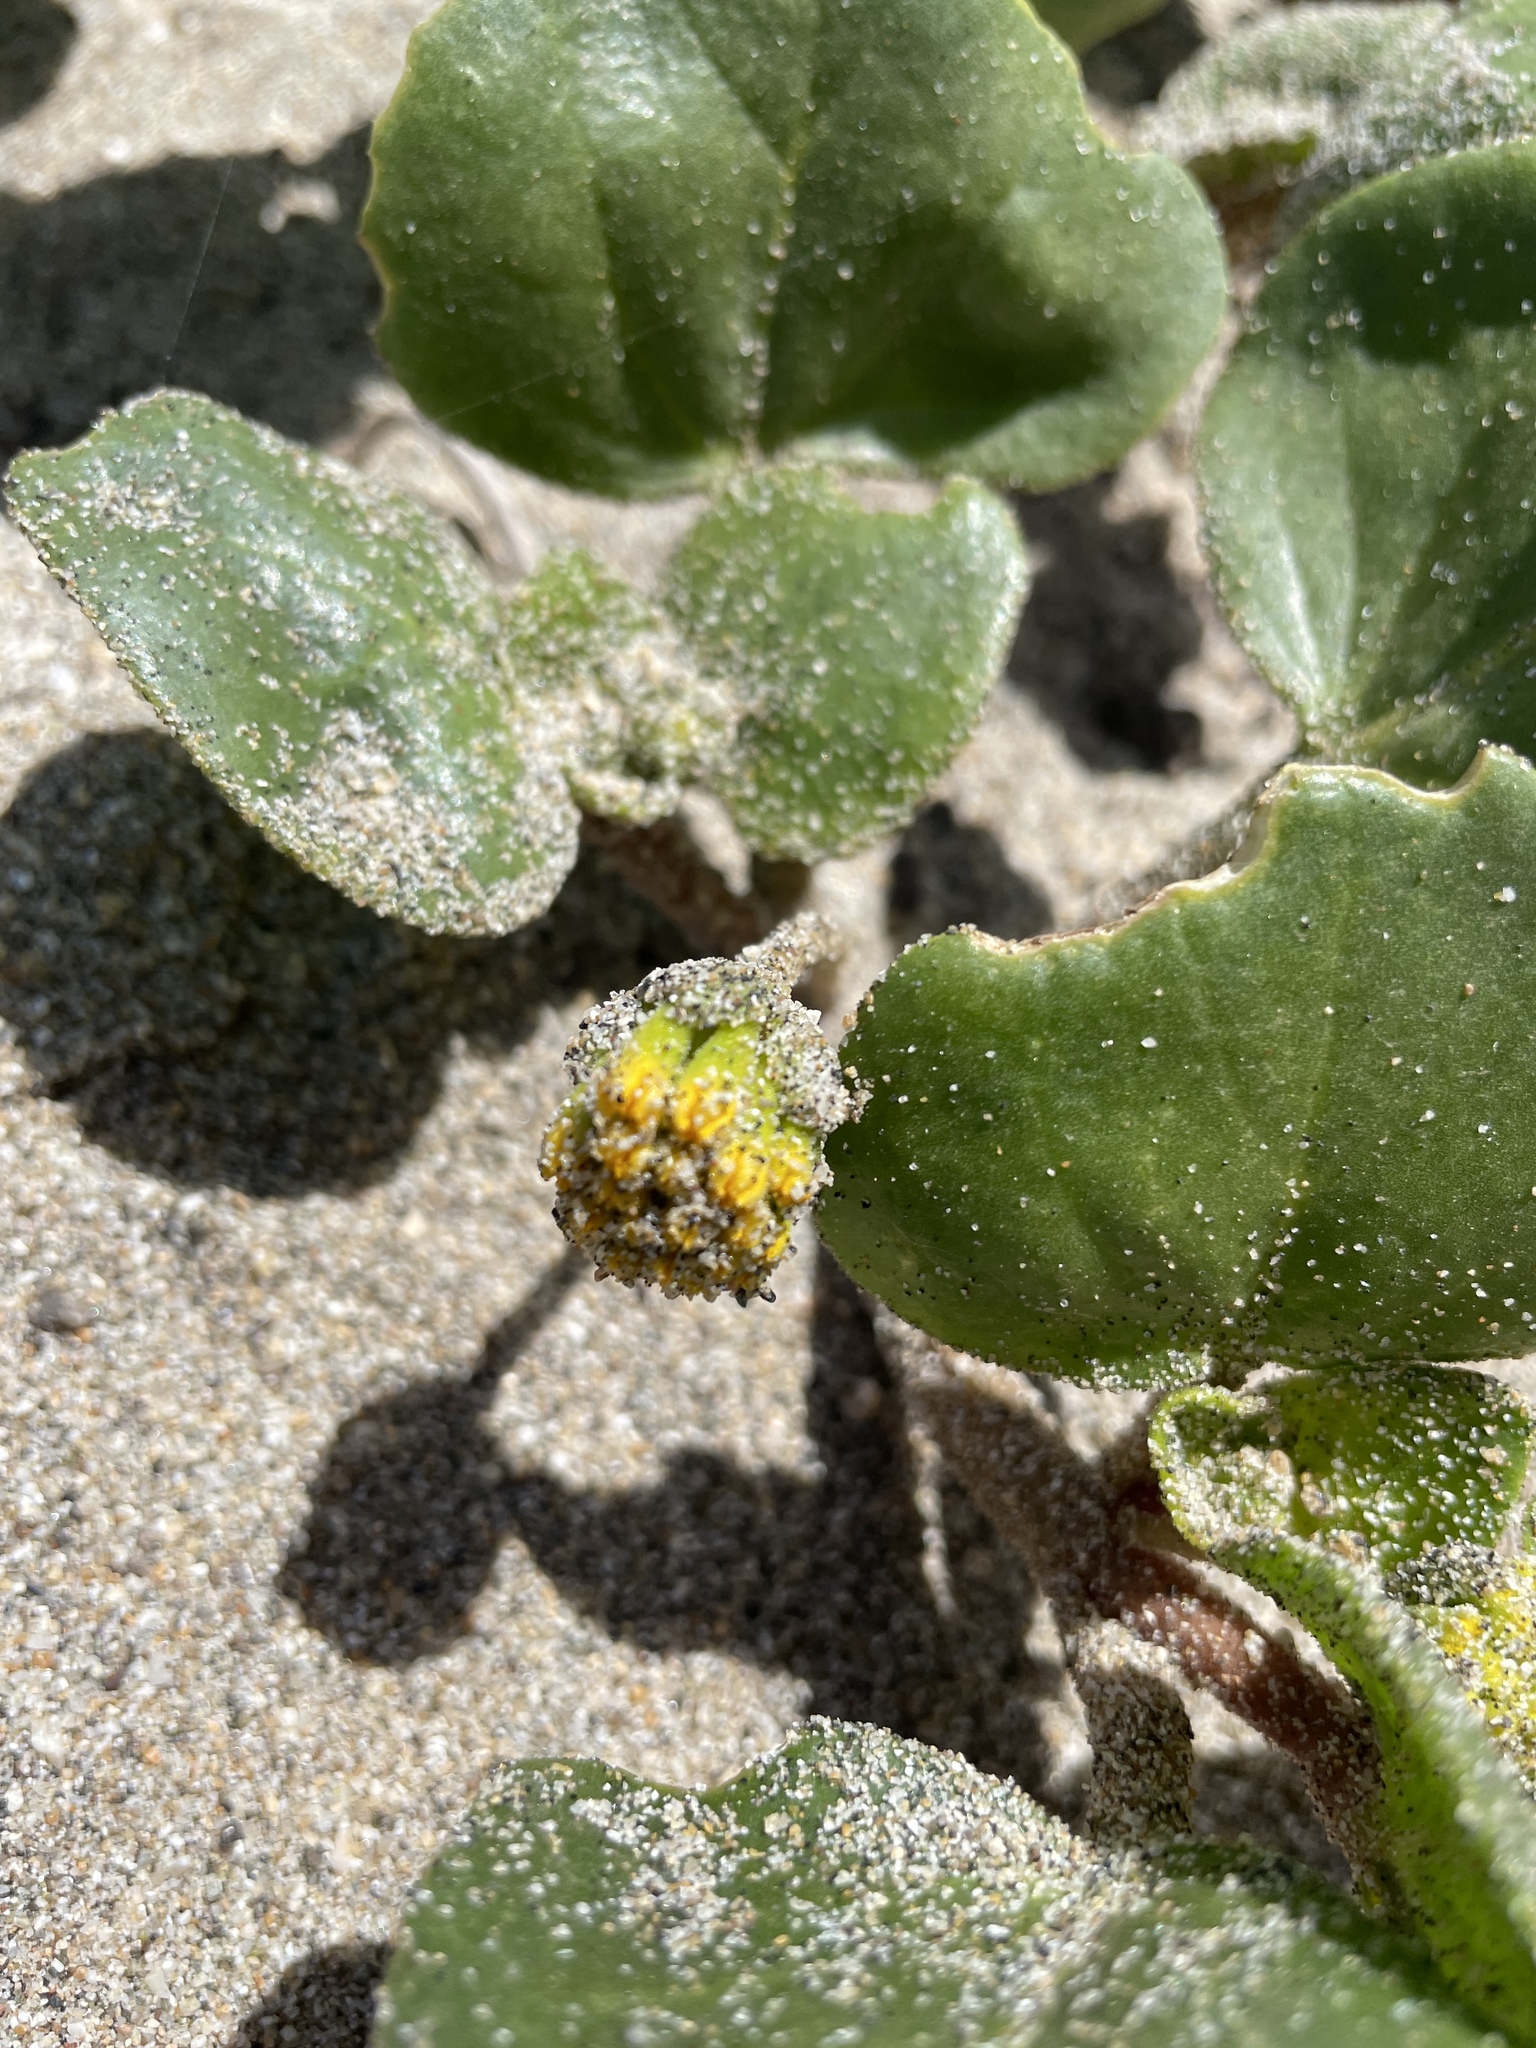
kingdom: Plantae
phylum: Tracheophyta
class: Magnoliopsida
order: Caryophyllales
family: Nyctaginaceae
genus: Abronia
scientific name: Abronia latifolia
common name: Yellow sand-verbena
